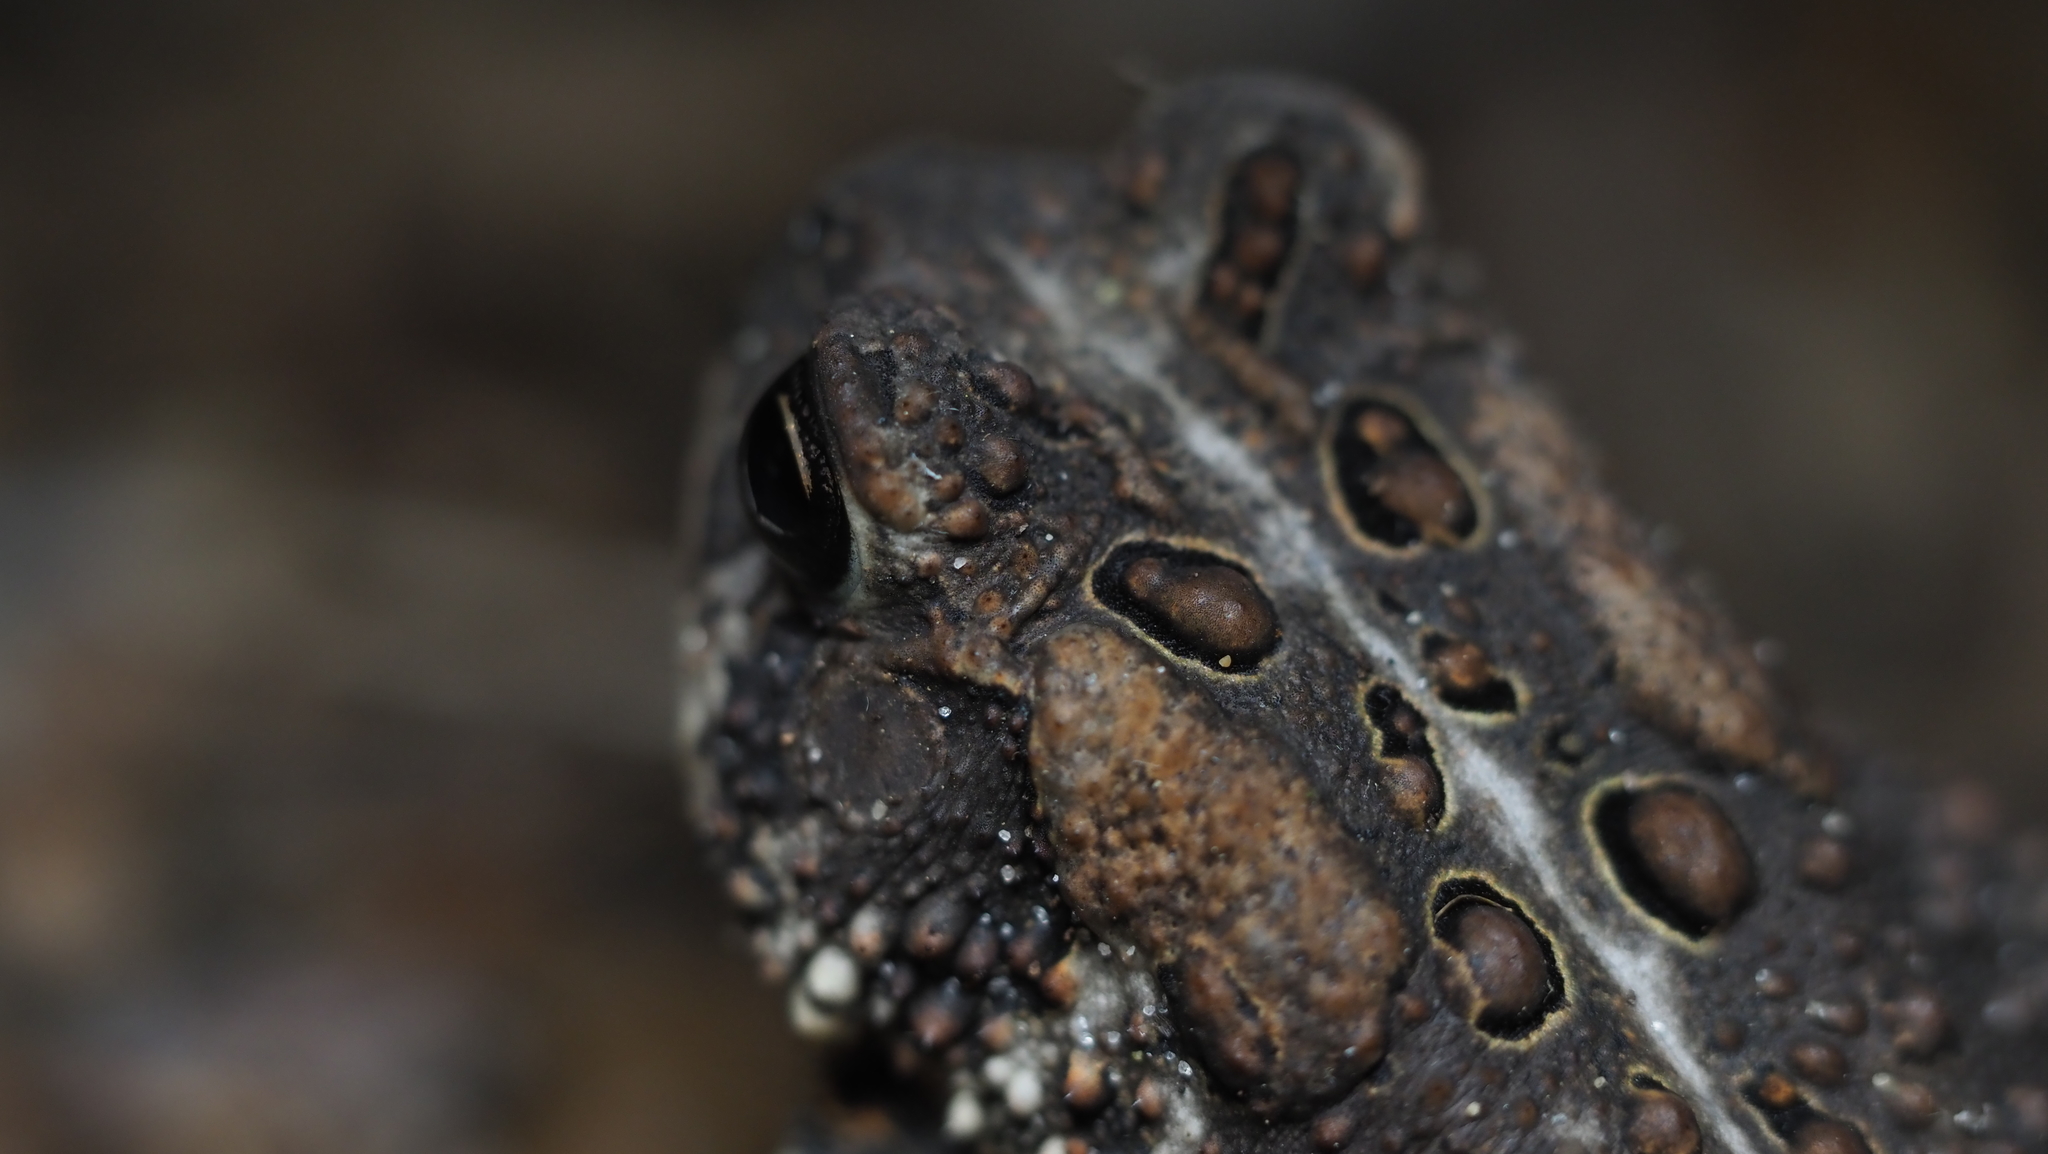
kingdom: Animalia
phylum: Chordata
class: Amphibia
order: Anura
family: Bufonidae
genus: Anaxyrus
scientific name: Anaxyrus americanus
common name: American toad
